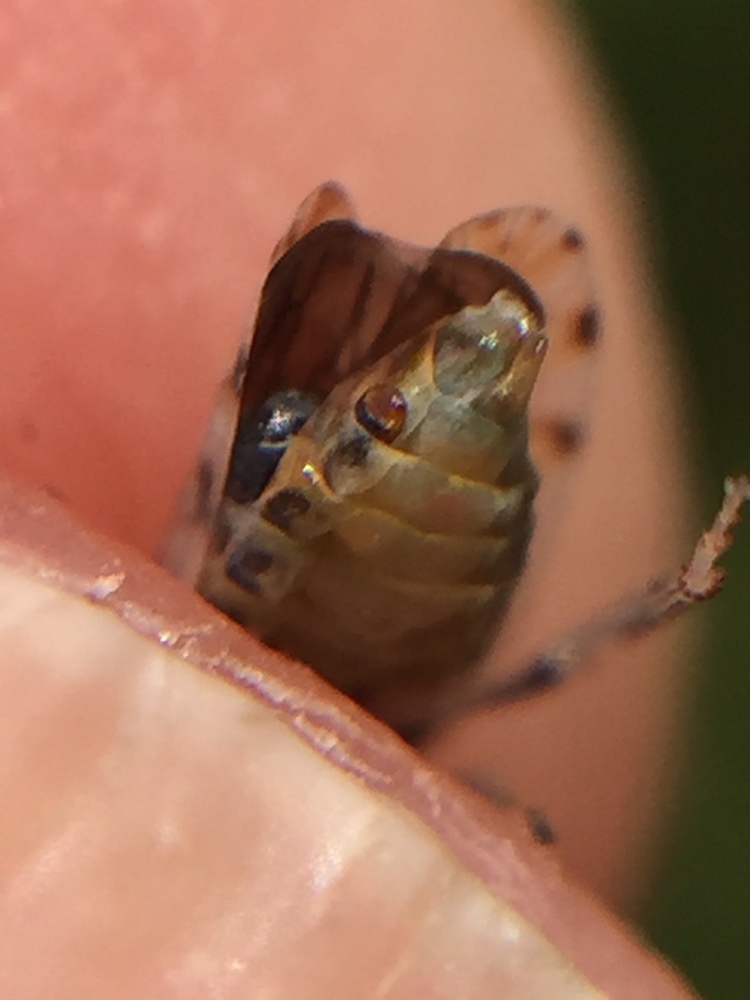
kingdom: Animalia
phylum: Arthropoda
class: Insecta
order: Strepsiptera
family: Halictophagidae
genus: Coriophagus
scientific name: Coriophagus casui
